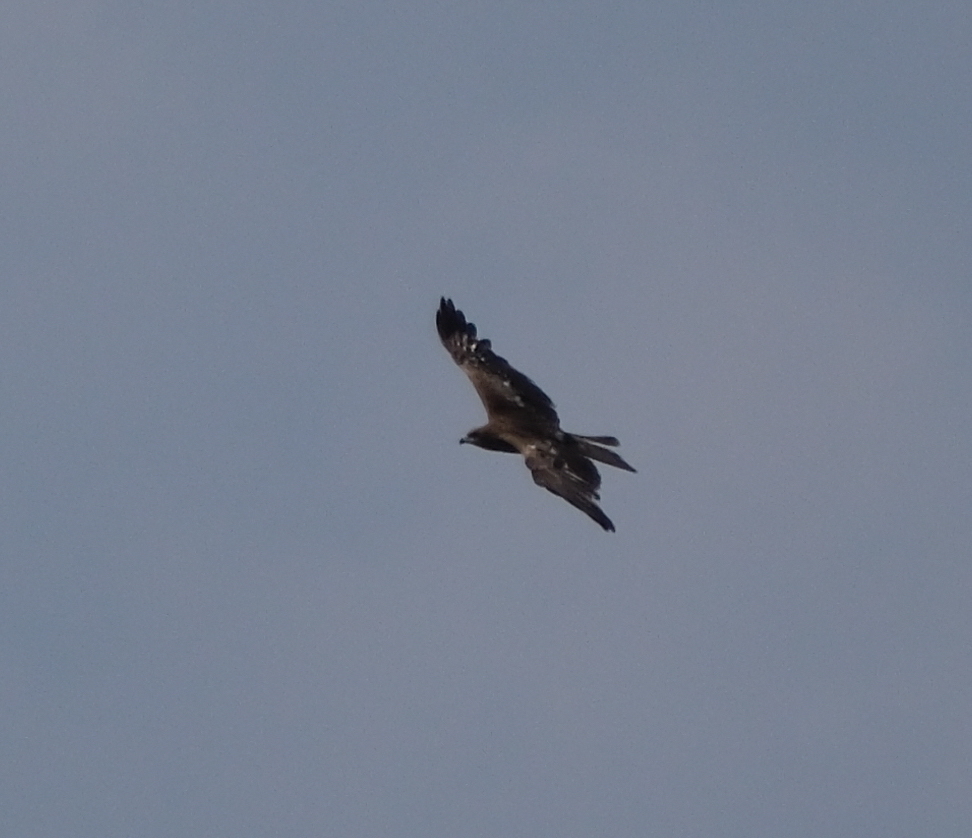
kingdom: Animalia
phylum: Chordata
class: Aves
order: Accipitriformes
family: Accipitridae
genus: Milvus
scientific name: Milvus migrans
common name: Black kite
